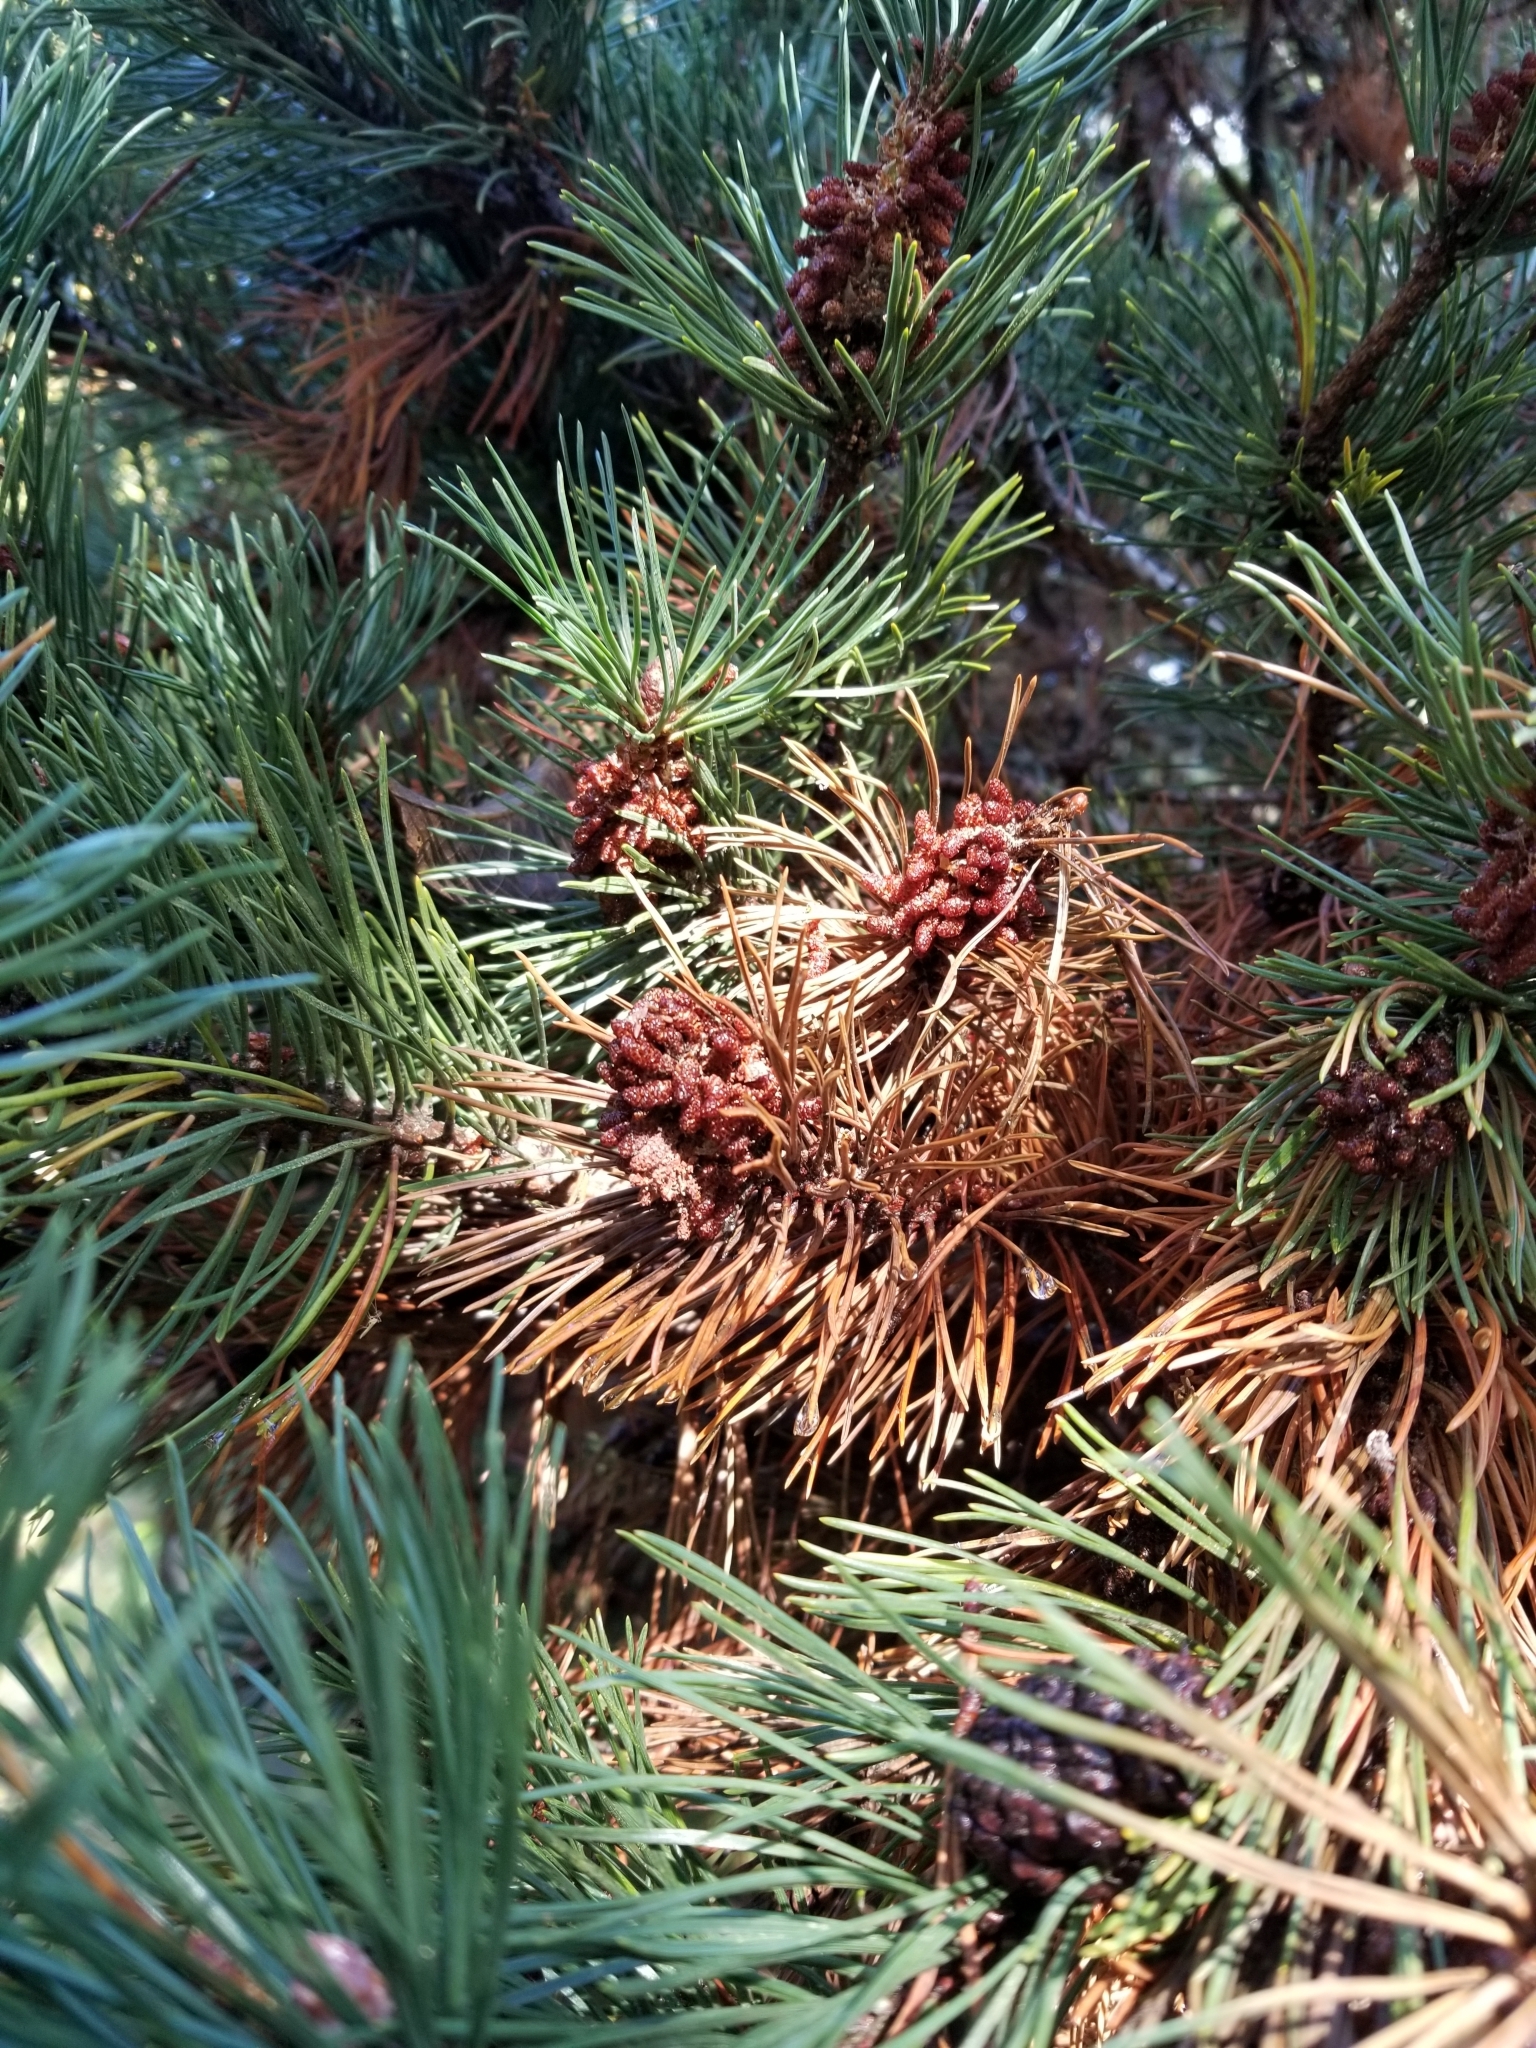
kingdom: Plantae
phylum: Tracheophyta
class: Pinopsida
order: Pinales
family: Pinaceae
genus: Pinus
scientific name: Pinus contorta
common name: Lodgepole pine
